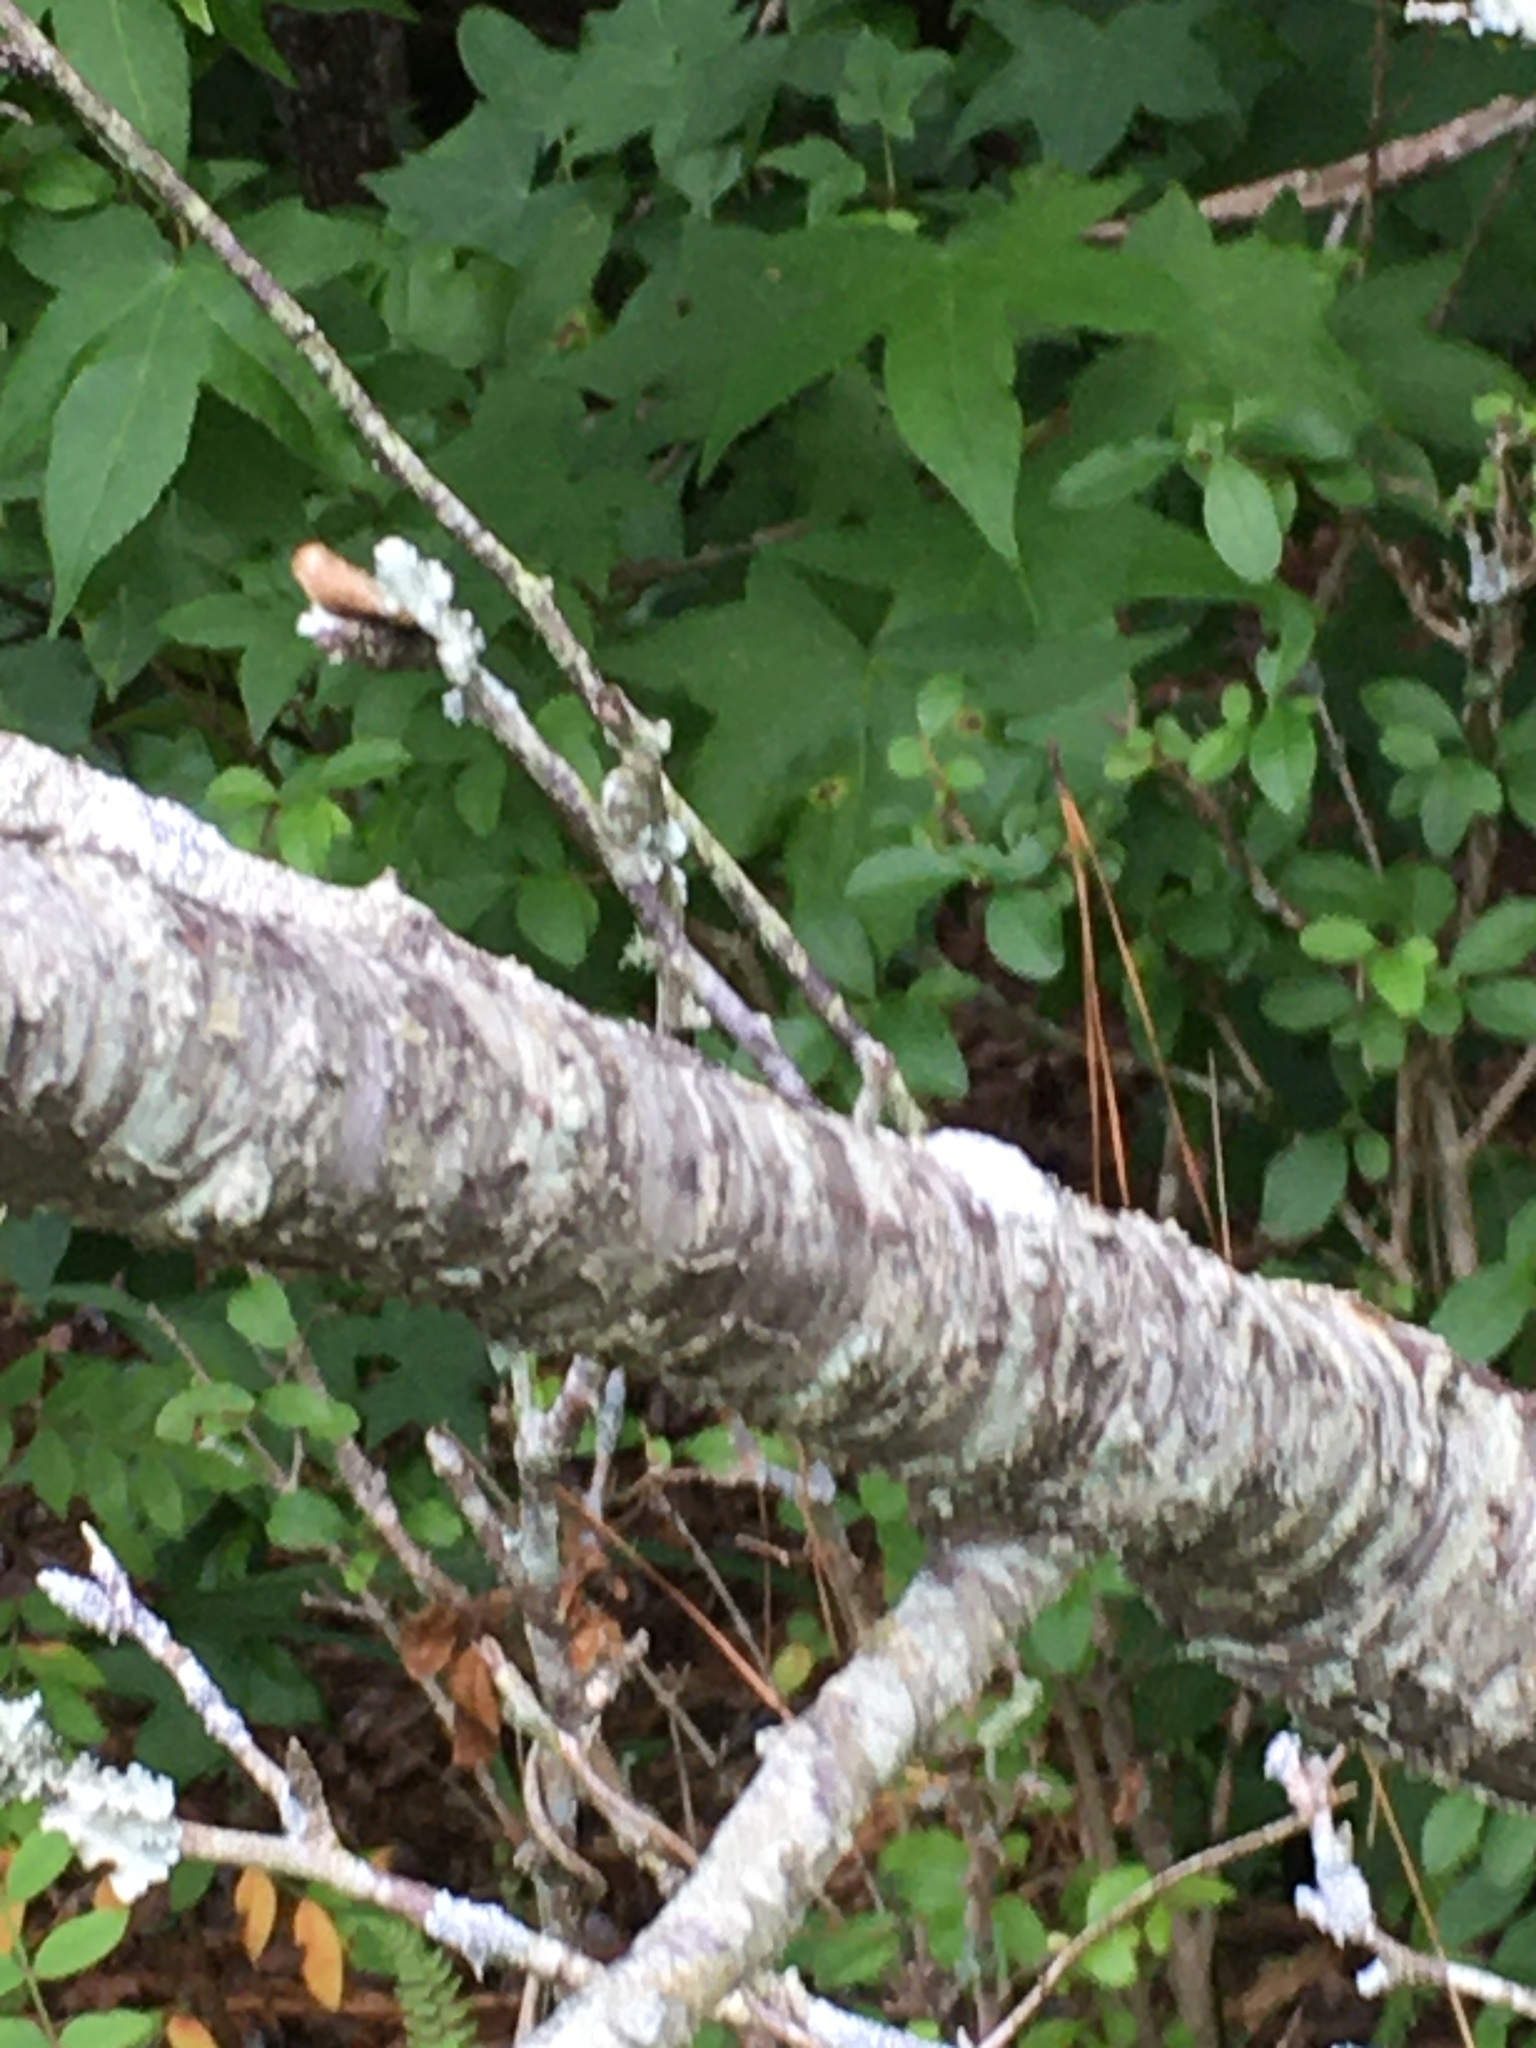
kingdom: Plantae
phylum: Tracheophyta
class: Magnoliopsida
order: Rosales
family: Rosaceae
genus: Prunus
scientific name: Prunus angustifolia
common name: Cherokee plum
